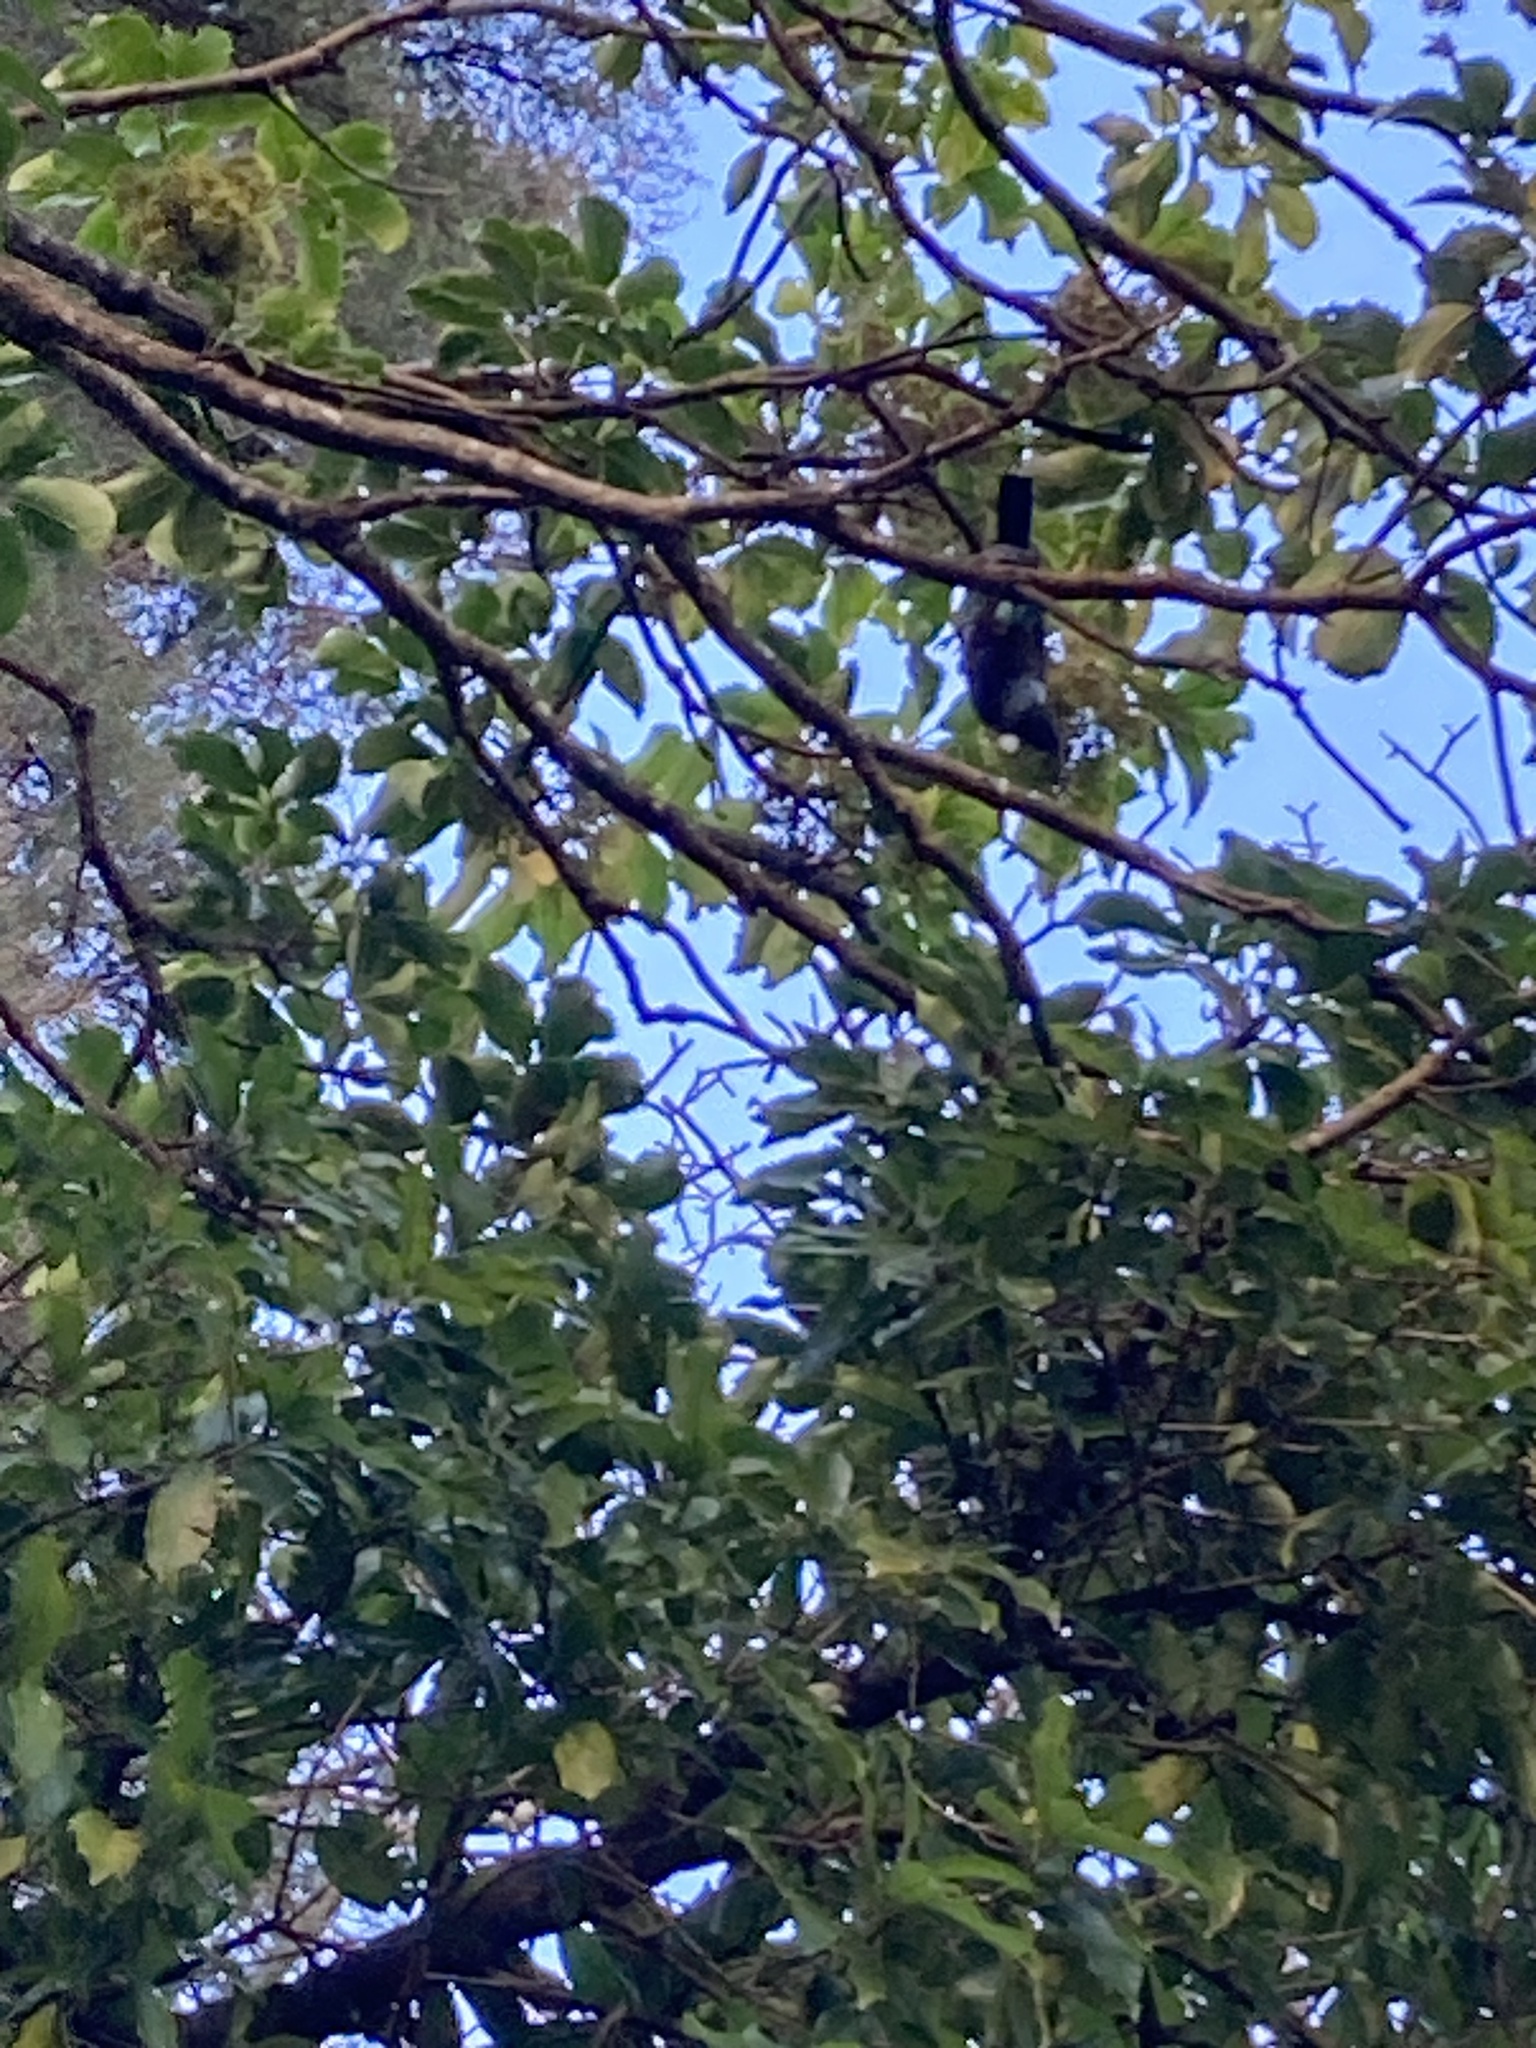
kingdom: Animalia
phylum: Chordata
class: Aves
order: Passeriformes
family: Meliphagidae
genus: Prosthemadera
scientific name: Prosthemadera novaeseelandiae
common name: Tui
